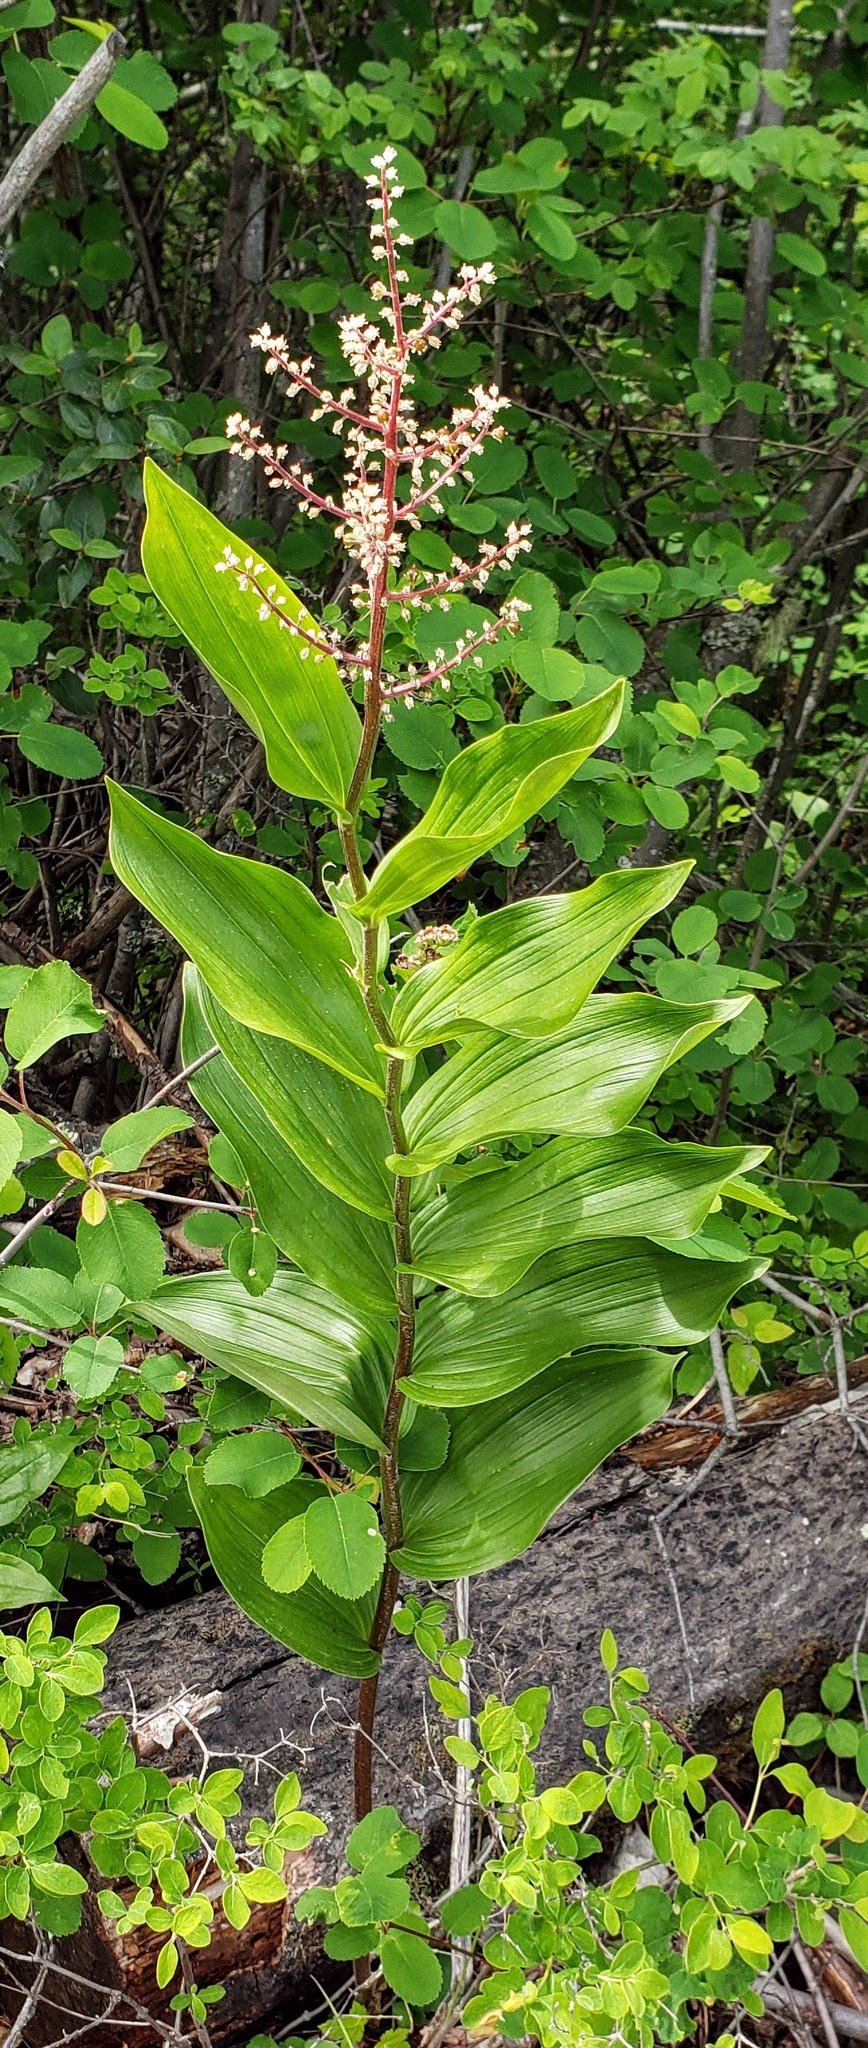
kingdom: Plantae
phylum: Tracheophyta
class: Liliopsida
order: Asparagales
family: Asparagaceae
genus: Maianthemum
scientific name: Maianthemum racemosum
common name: False spikenard
